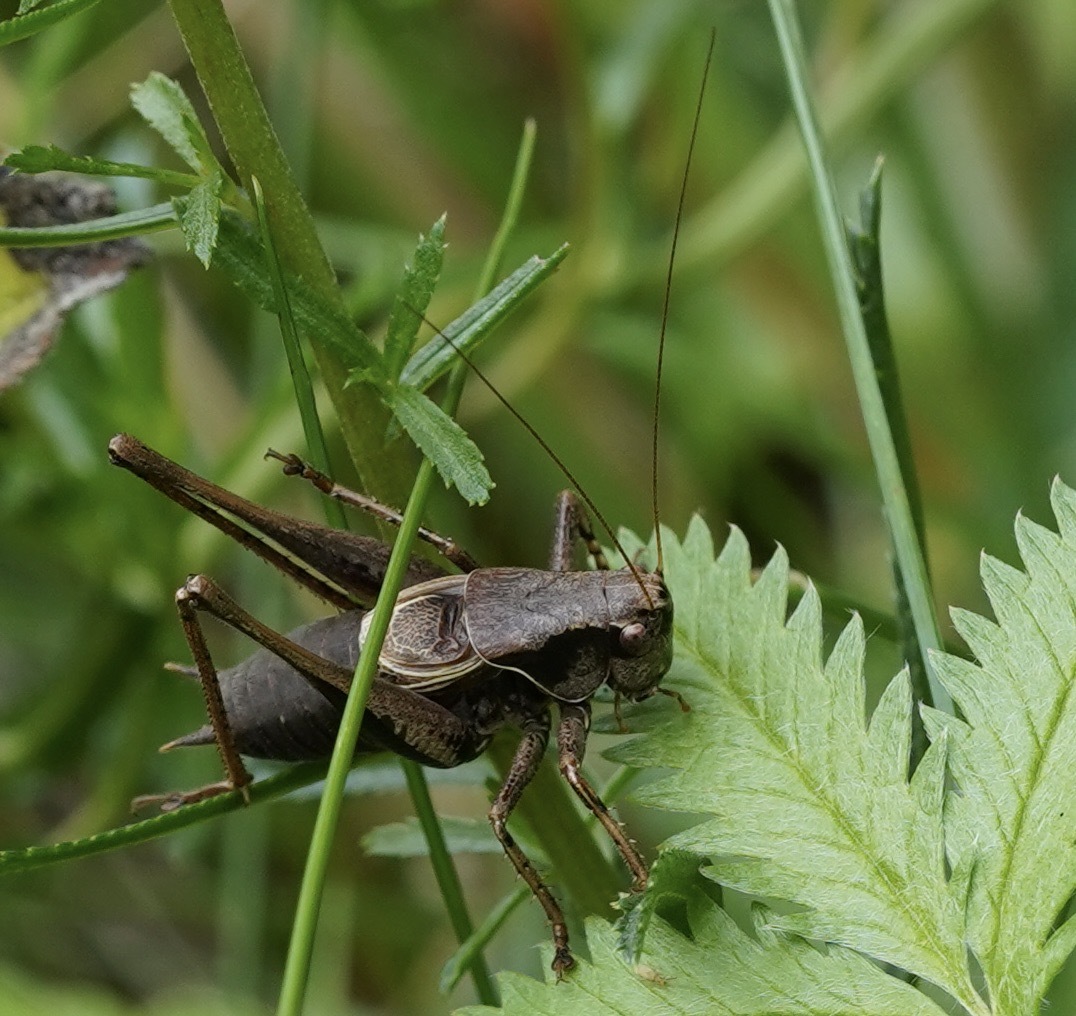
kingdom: Animalia
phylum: Arthropoda
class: Insecta
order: Orthoptera
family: Tettigoniidae
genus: Pholidoptera
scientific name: Pholidoptera griseoaptera
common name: Dark bush-cricket
